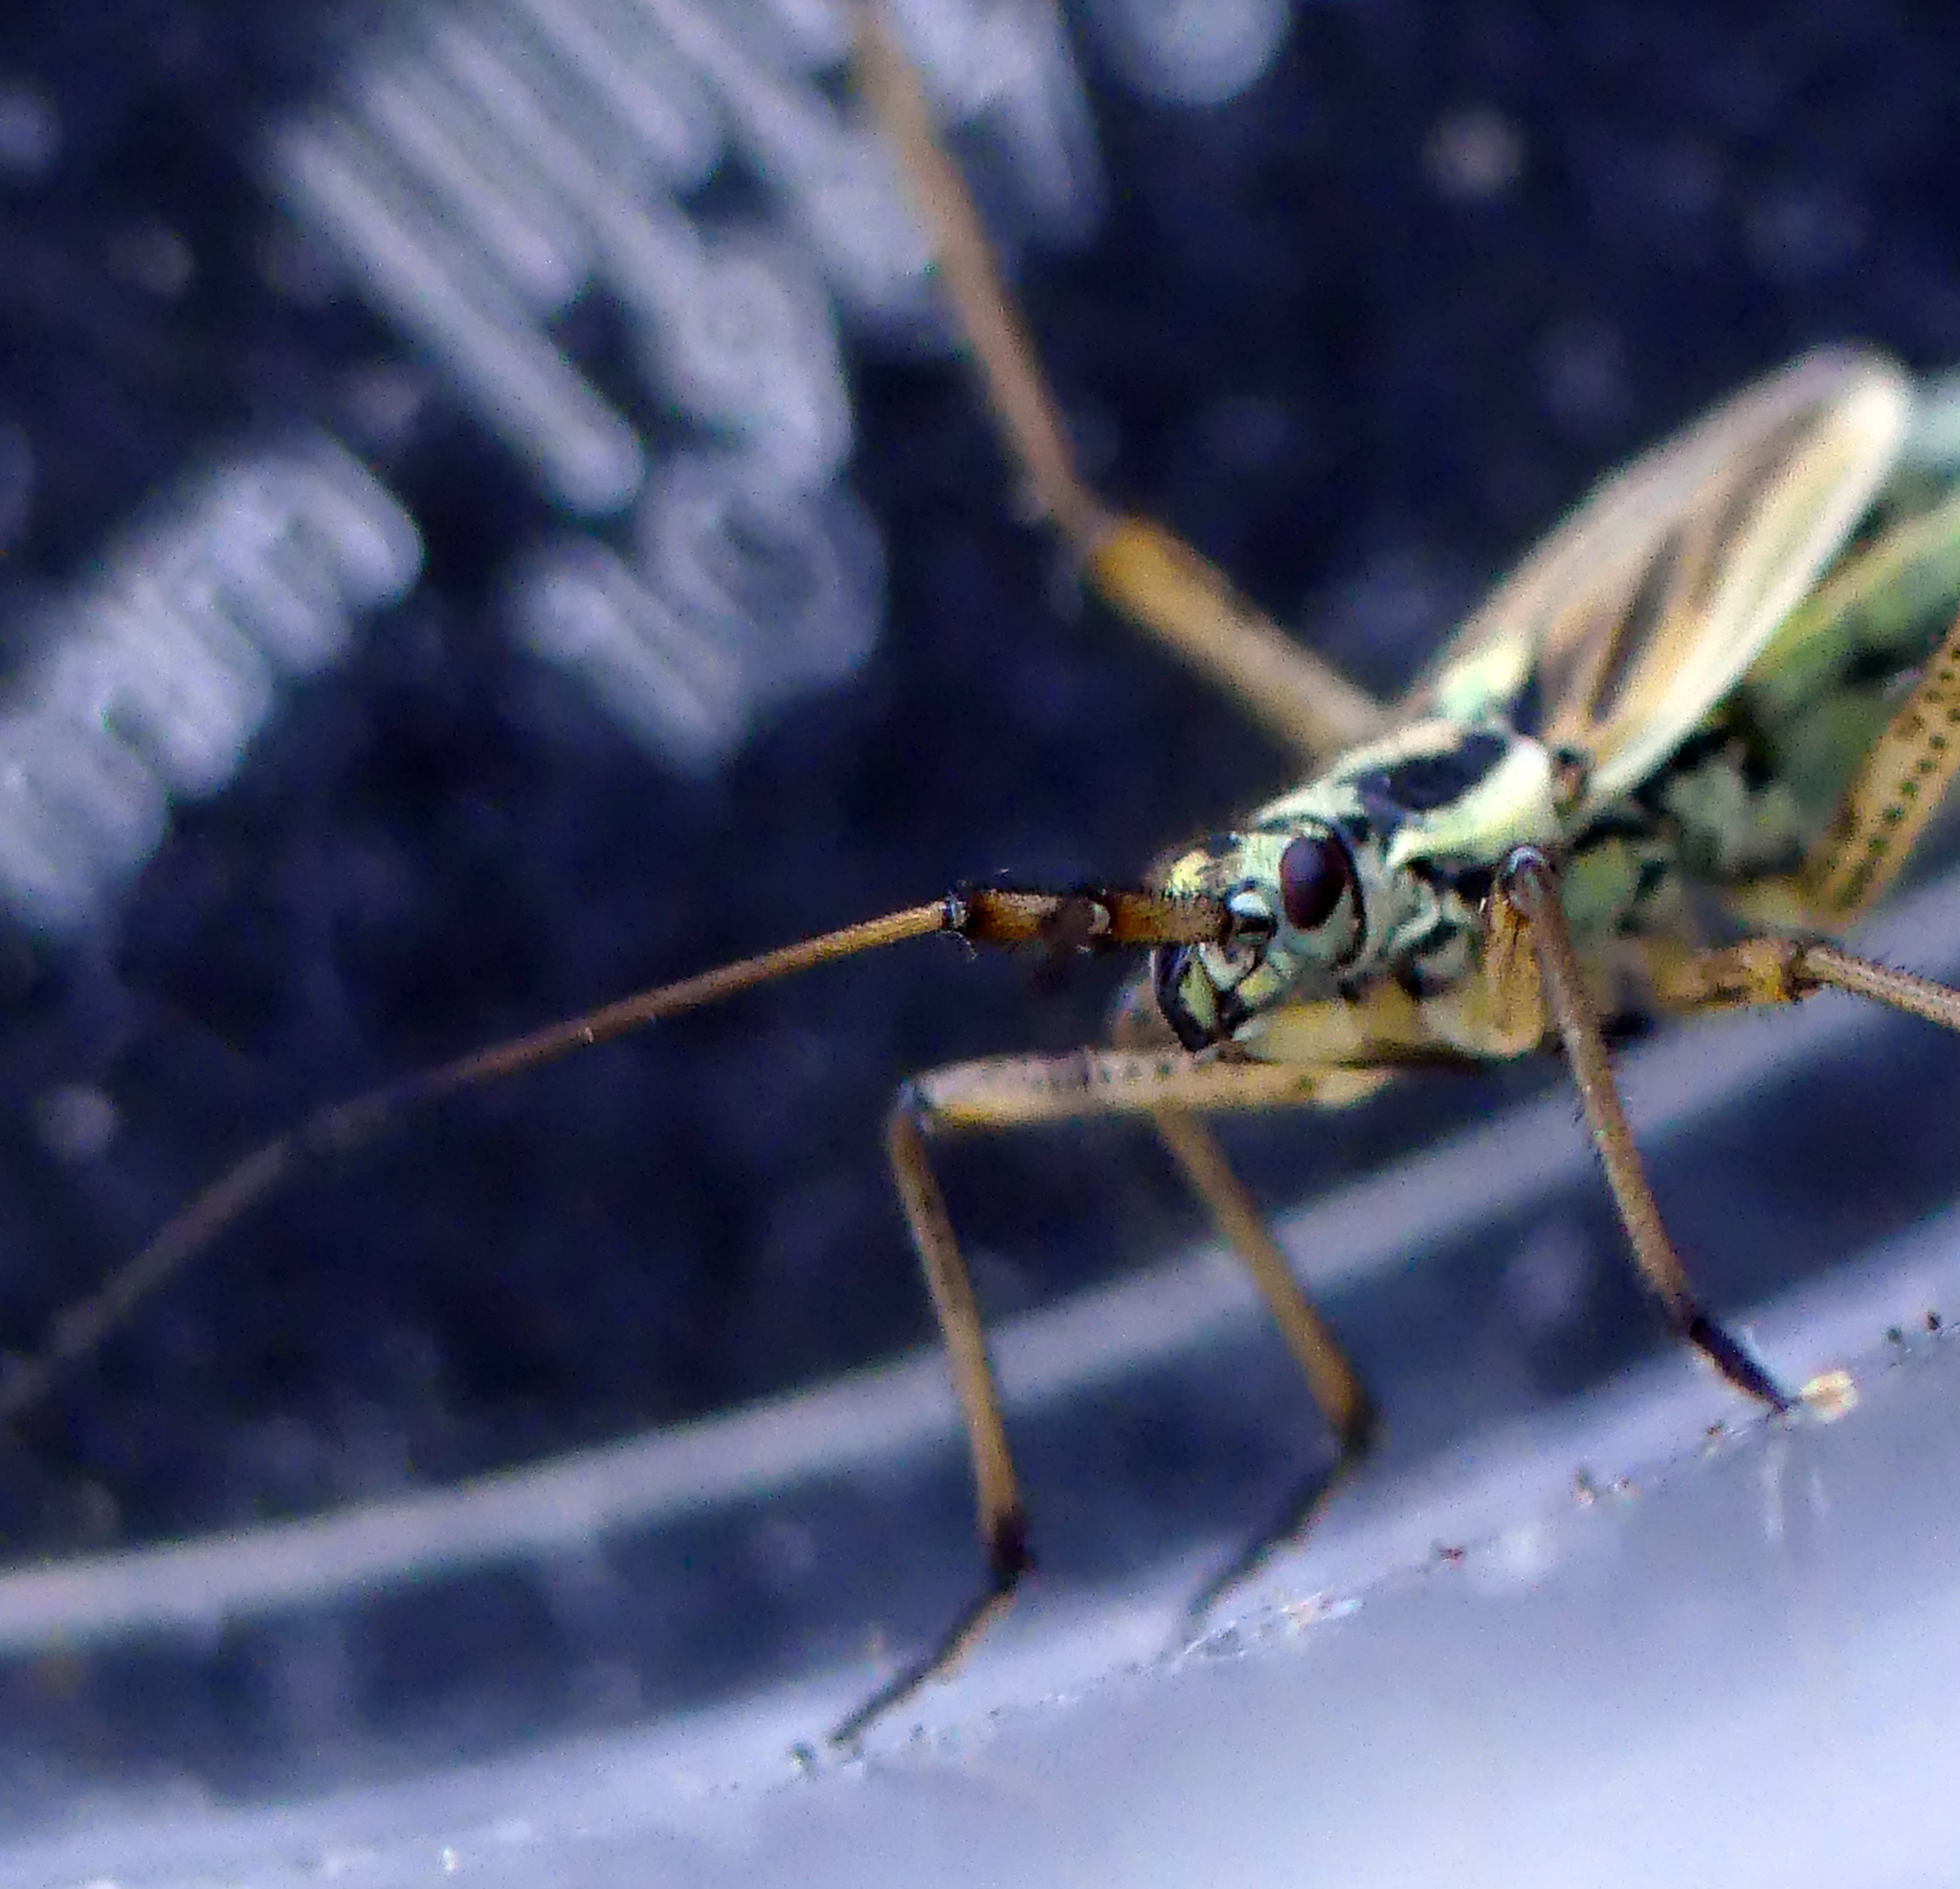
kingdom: Animalia
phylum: Arthropoda
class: Insecta
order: Hemiptera
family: Miridae
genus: Leptopterna
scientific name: Leptopterna dolabrata
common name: Meadow plant bug
